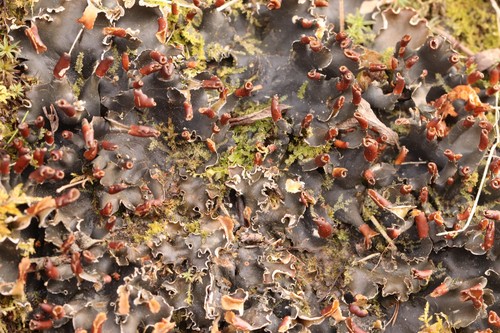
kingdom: Fungi
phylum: Ascomycota
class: Lecanoromycetes
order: Peltigerales
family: Peltigeraceae
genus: Peltigera
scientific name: Peltigera polydactylon
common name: Many-fruited pelt lichen
